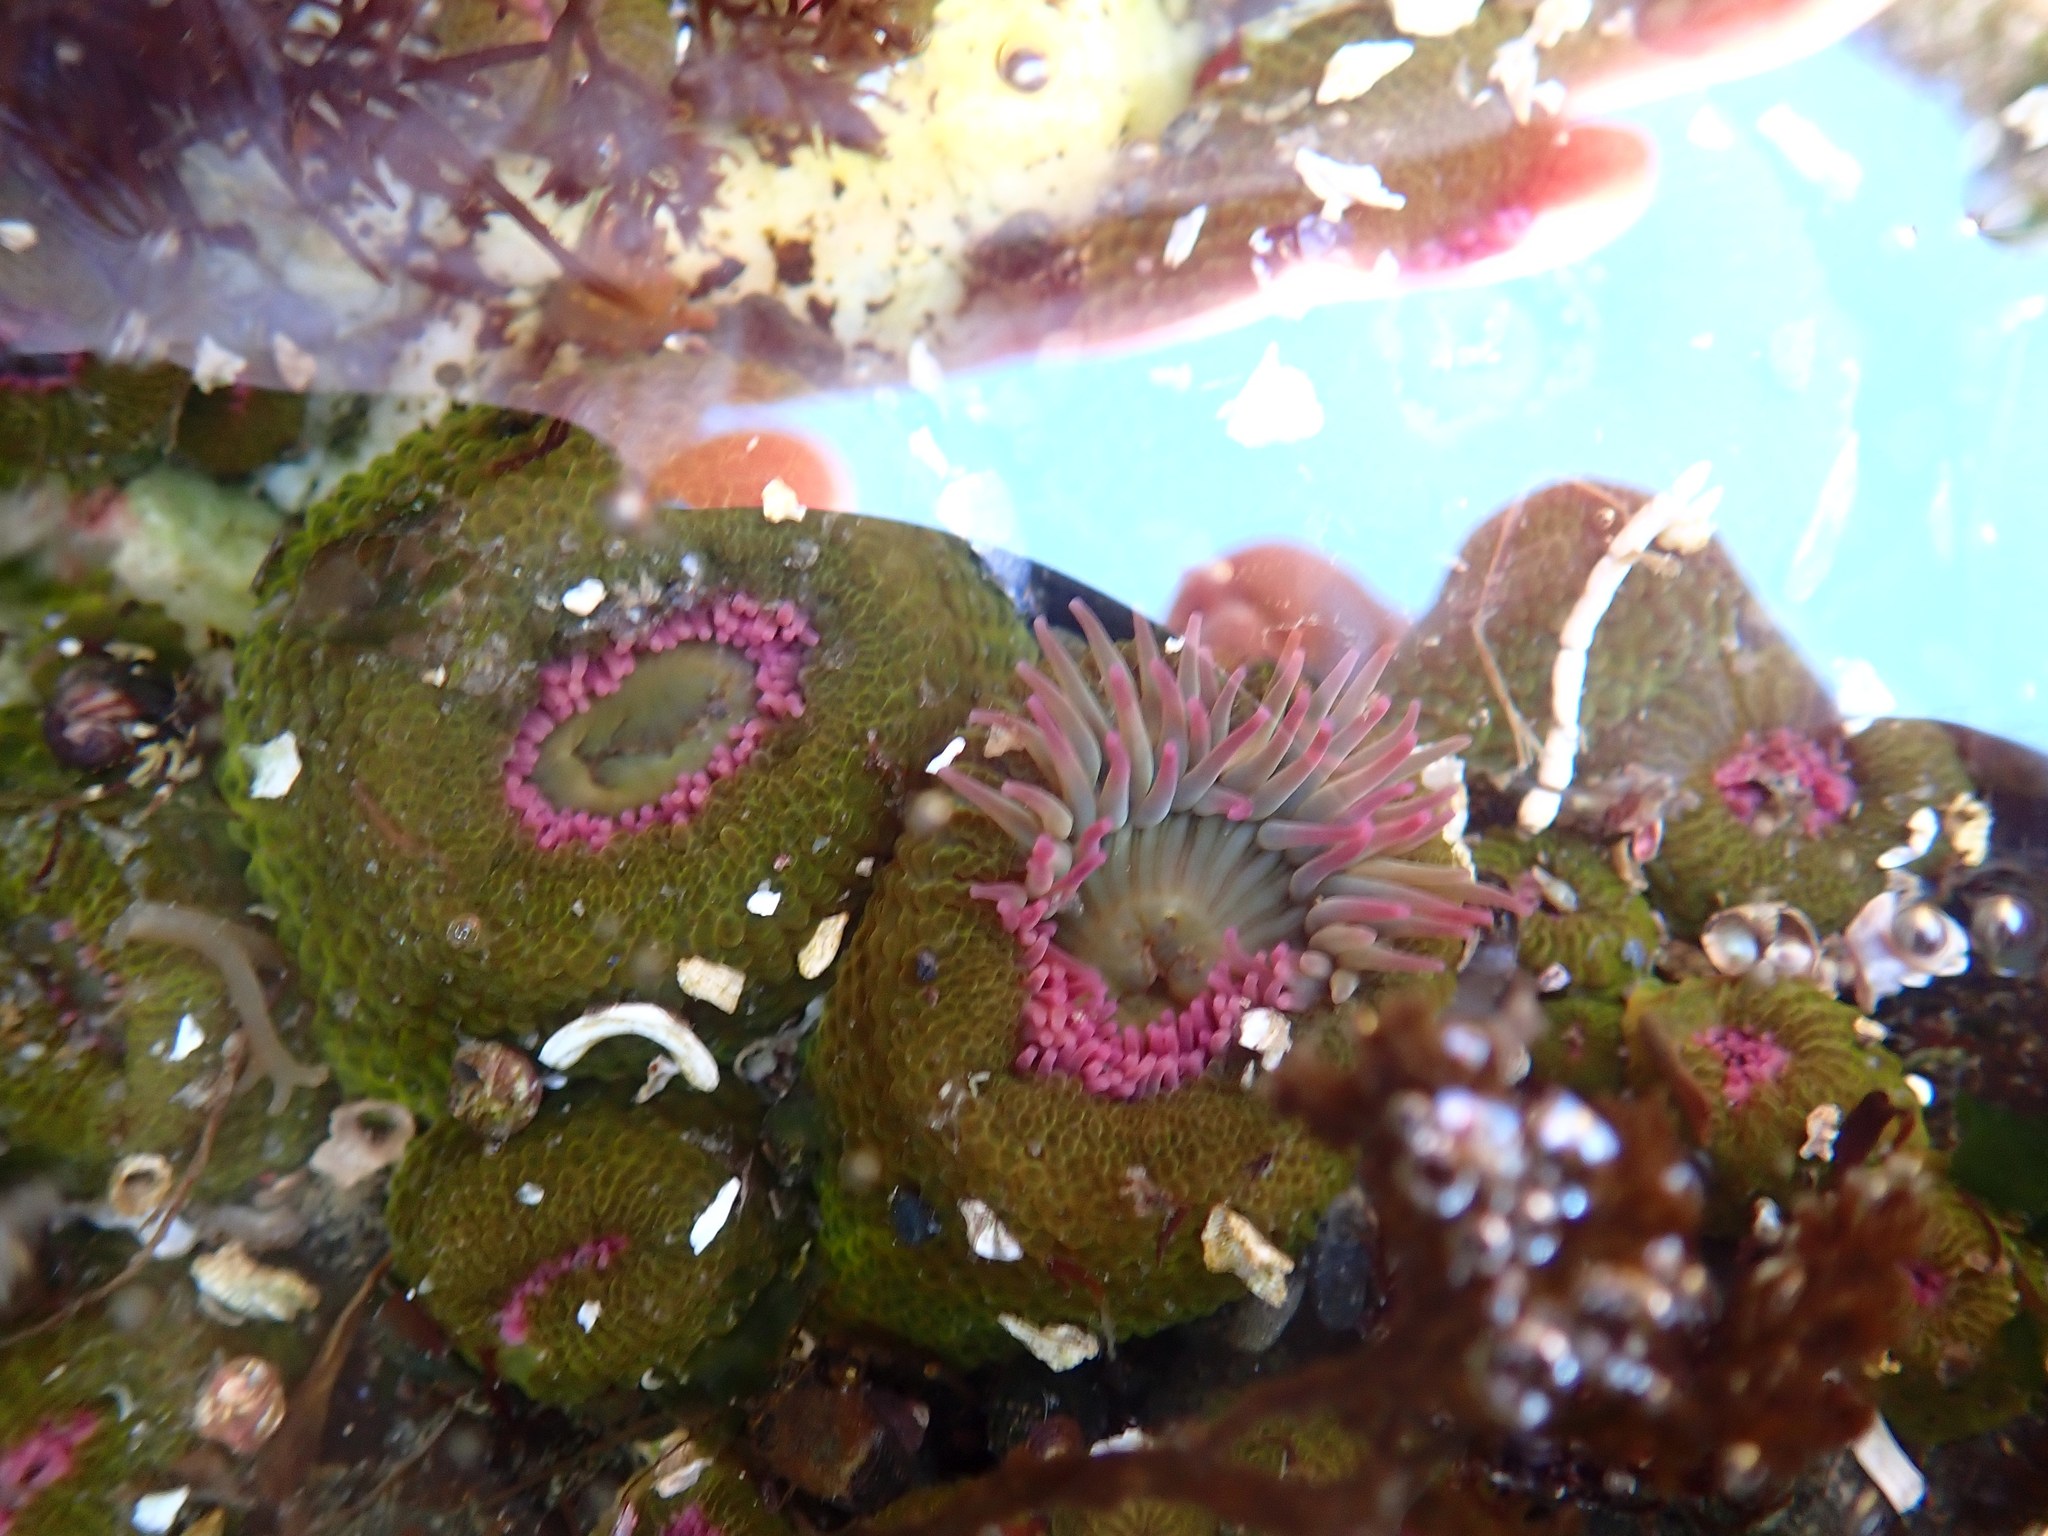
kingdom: Animalia
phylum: Cnidaria
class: Anthozoa
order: Actiniaria
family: Actiniidae
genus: Anthopleura
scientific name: Anthopleura elegantissima
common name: Clonal anemone
